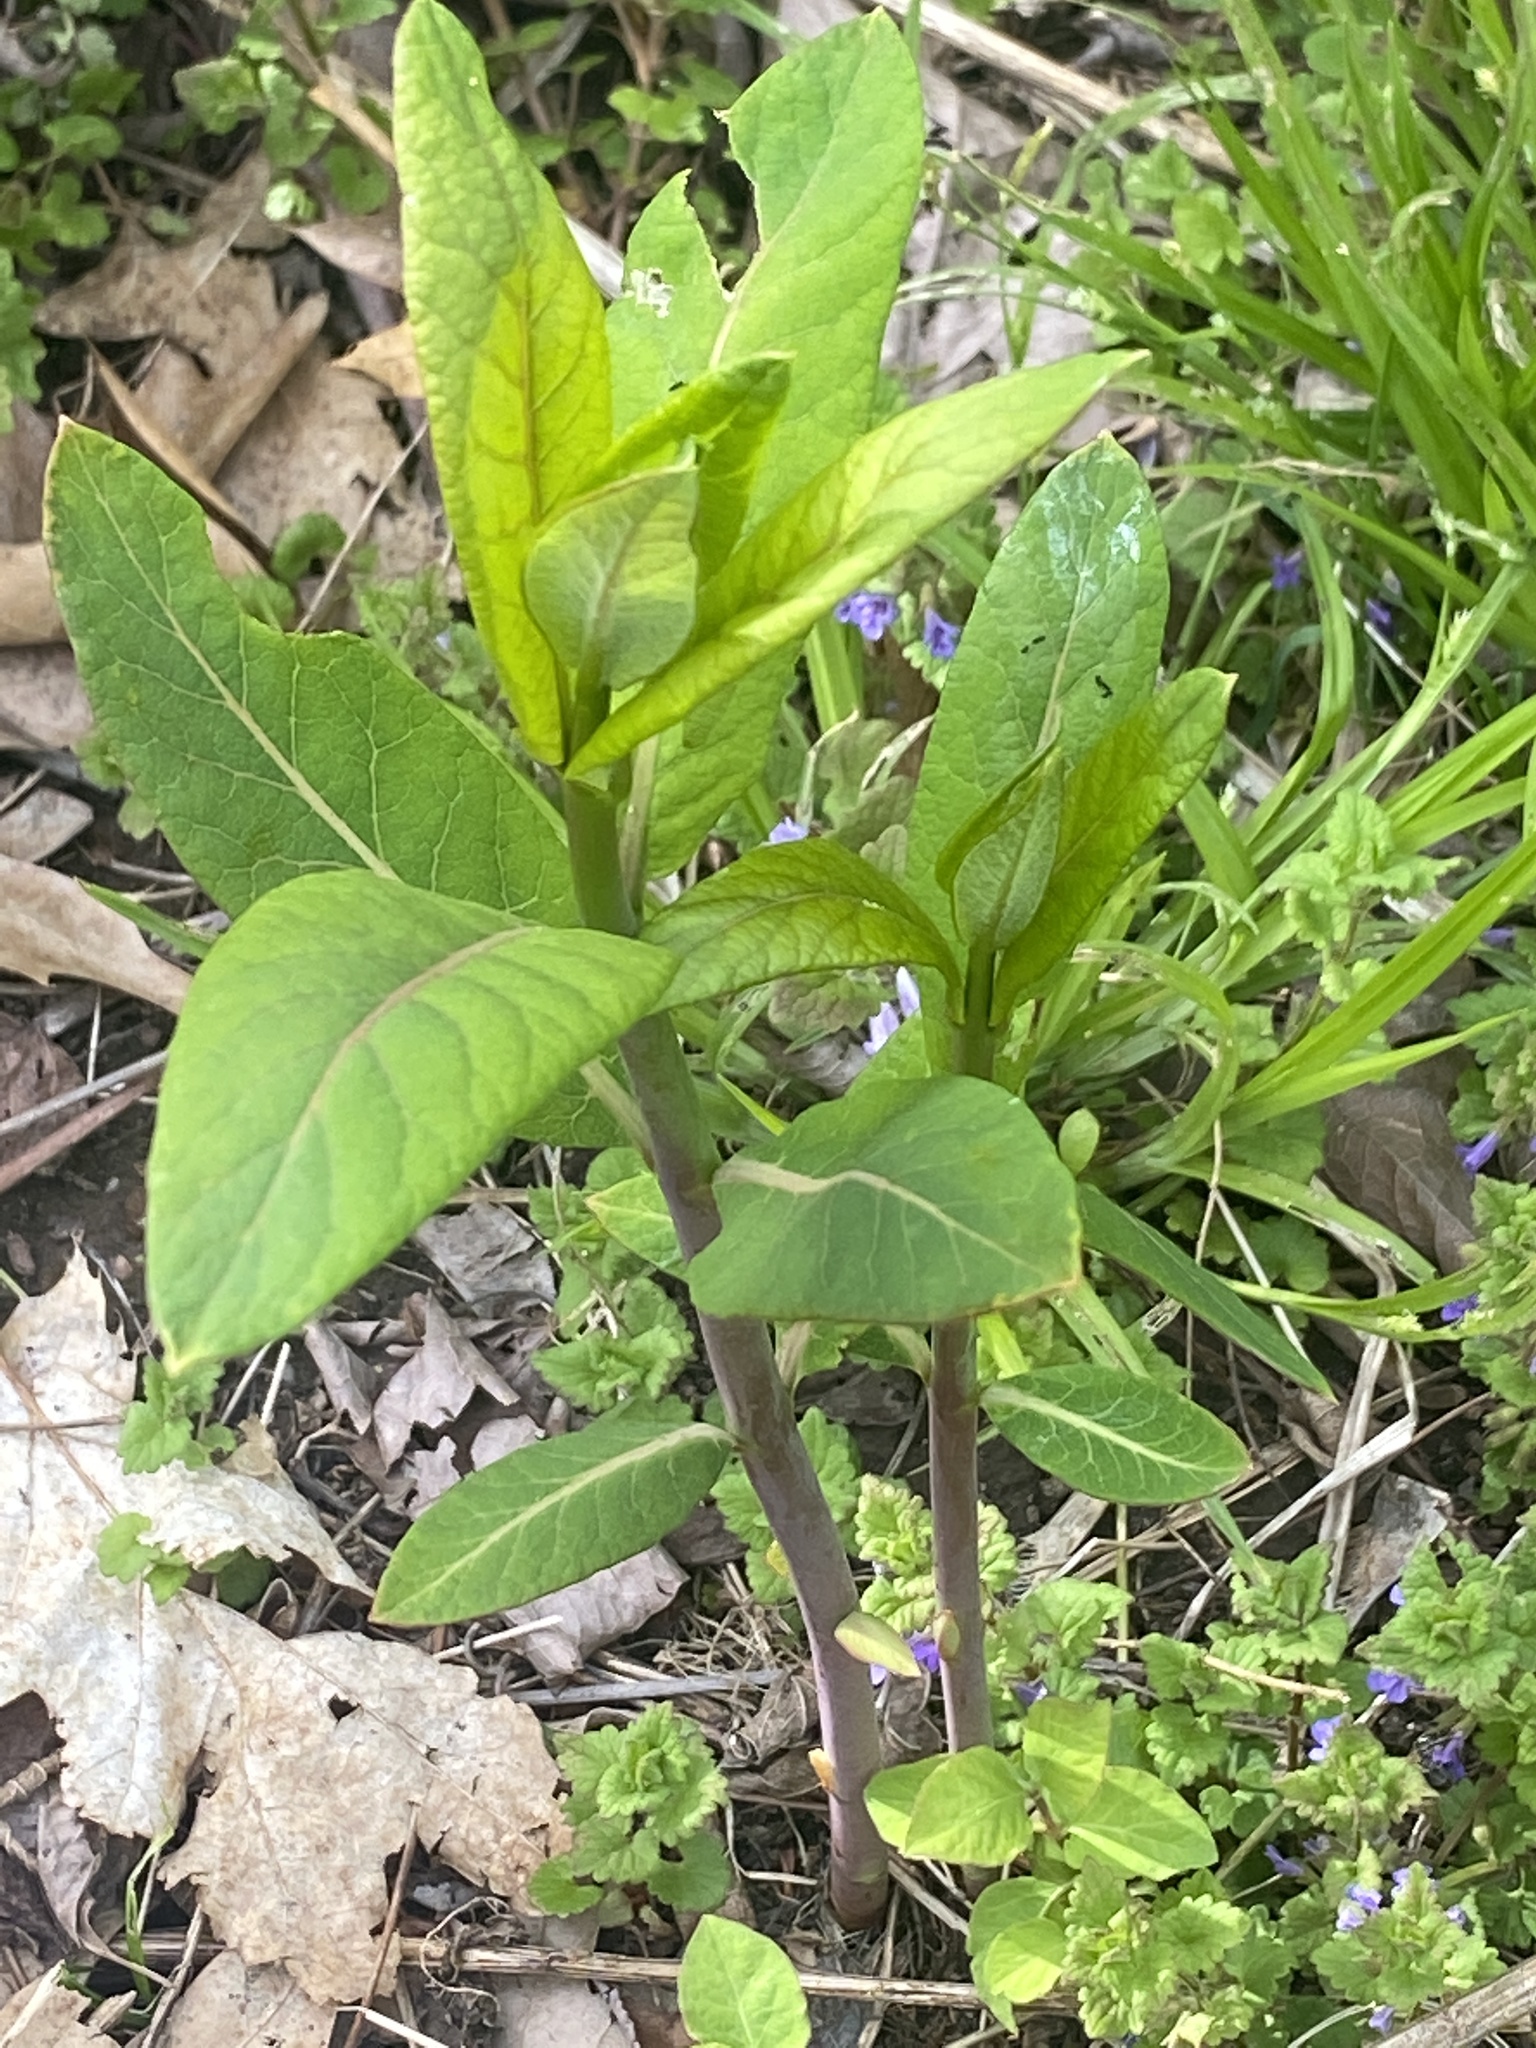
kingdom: Plantae
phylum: Tracheophyta
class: Magnoliopsida
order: Gentianales
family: Apocynaceae
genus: Apocynum
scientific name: Apocynum cannabinum
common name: Hemp dogbane
